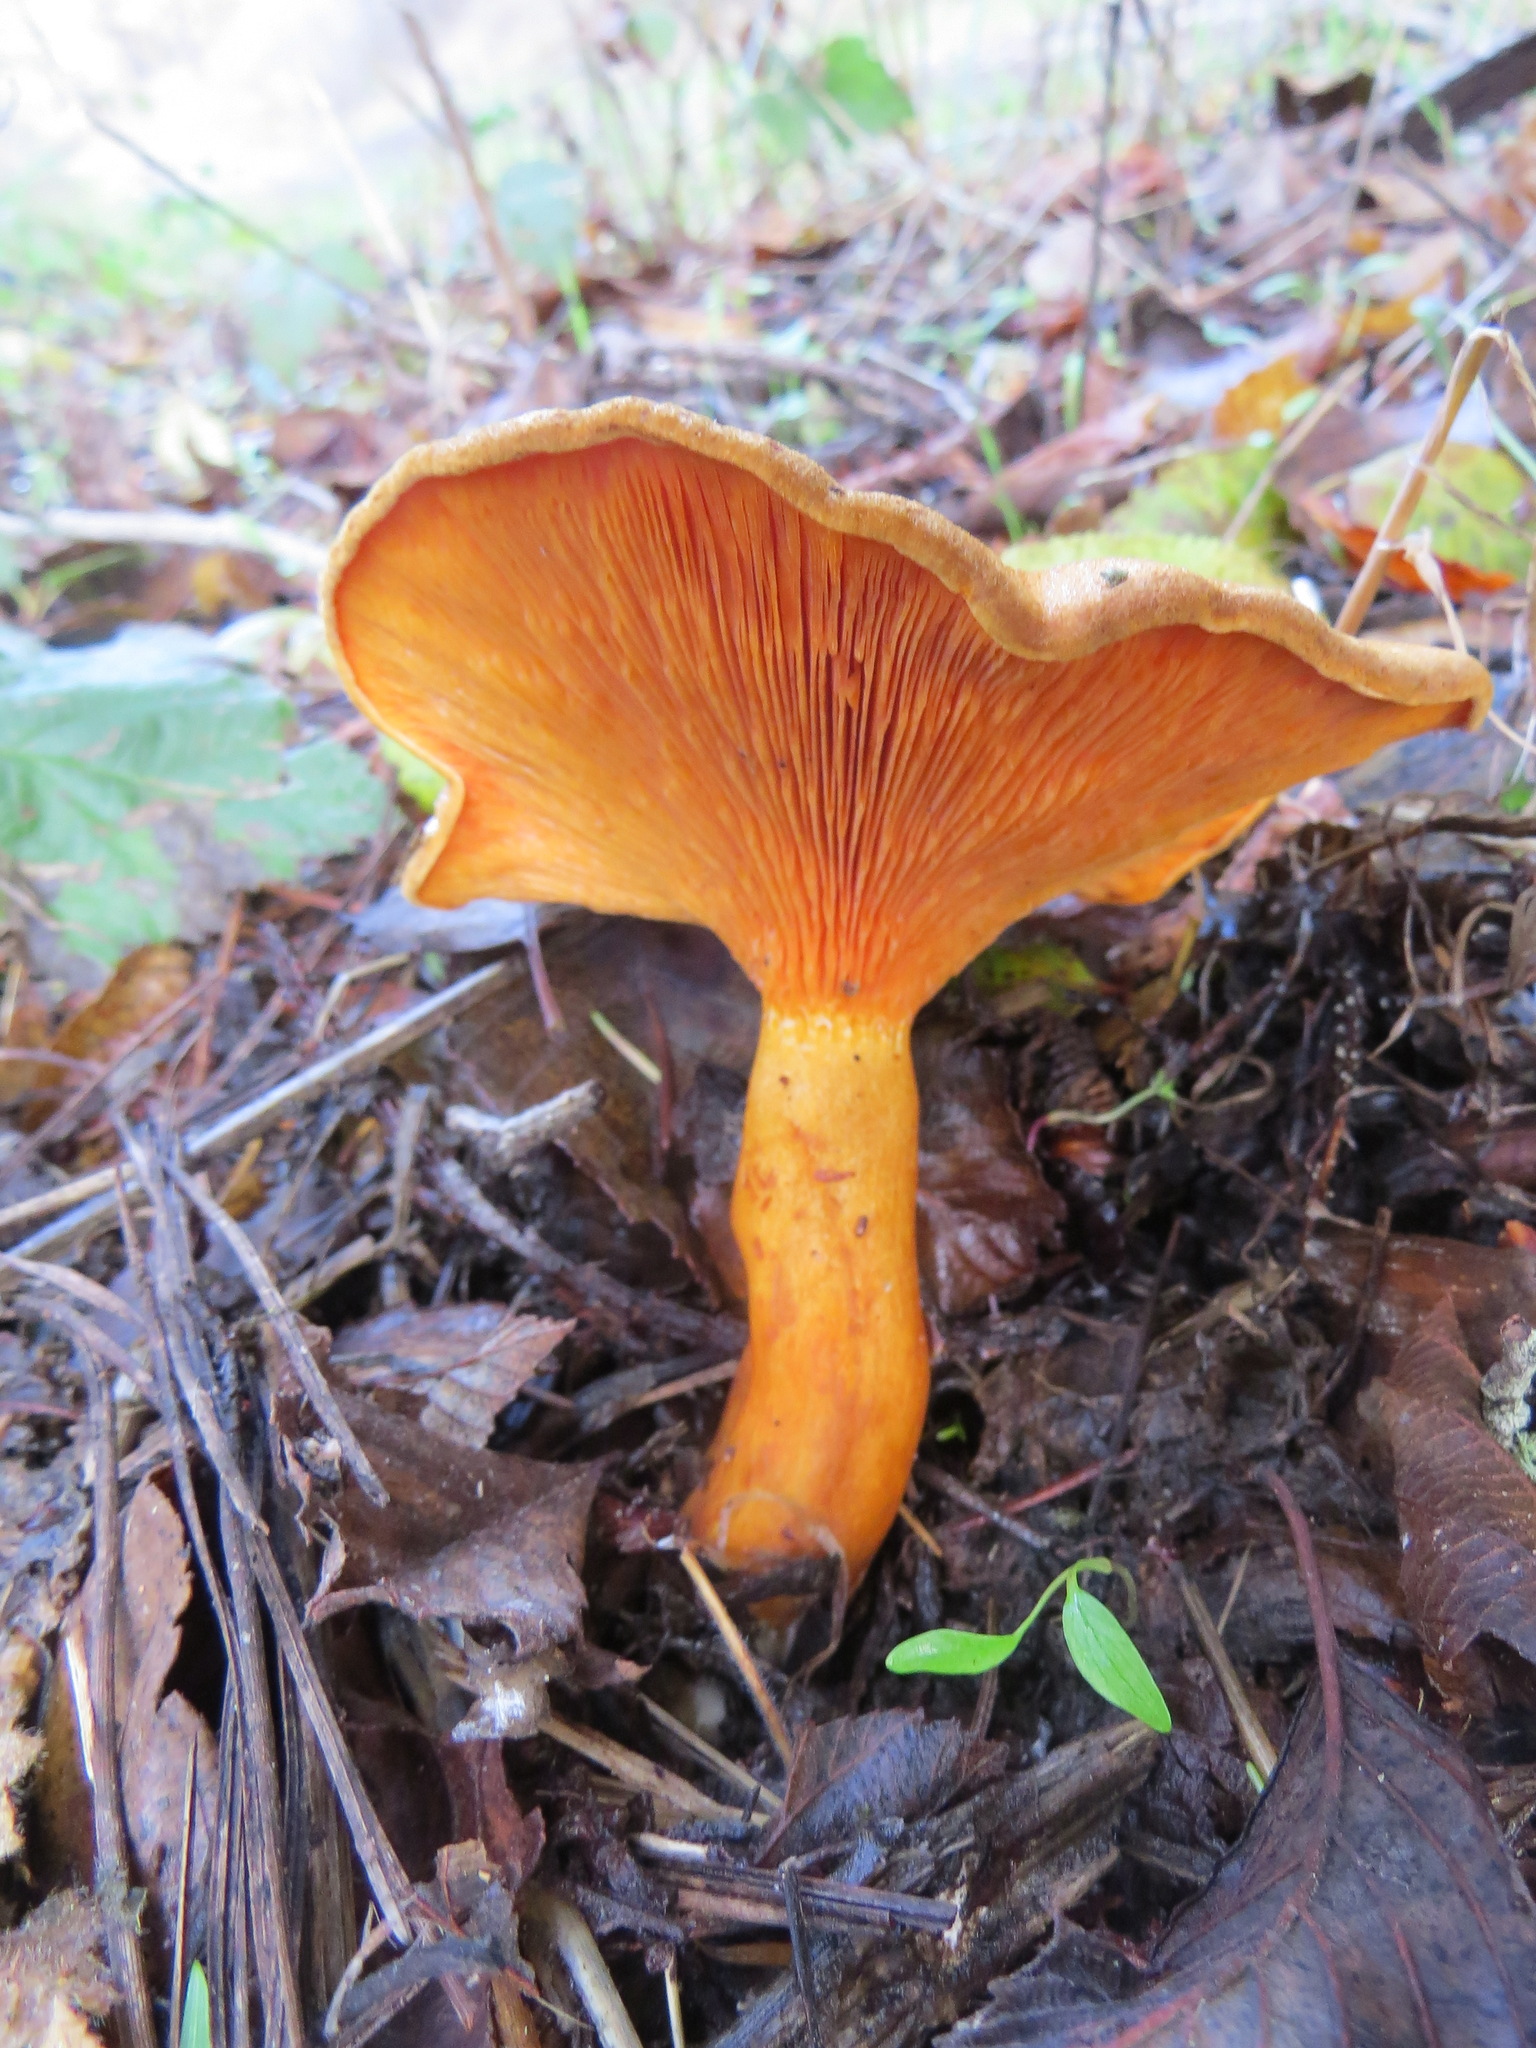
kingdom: Fungi
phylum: Basidiomycota
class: Agaricomycetes
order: Boletales
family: Hygrophoropsidaceae
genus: Hygrophoropsis
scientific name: Hygrophoropsis aurantiaca
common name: False chanterelle
